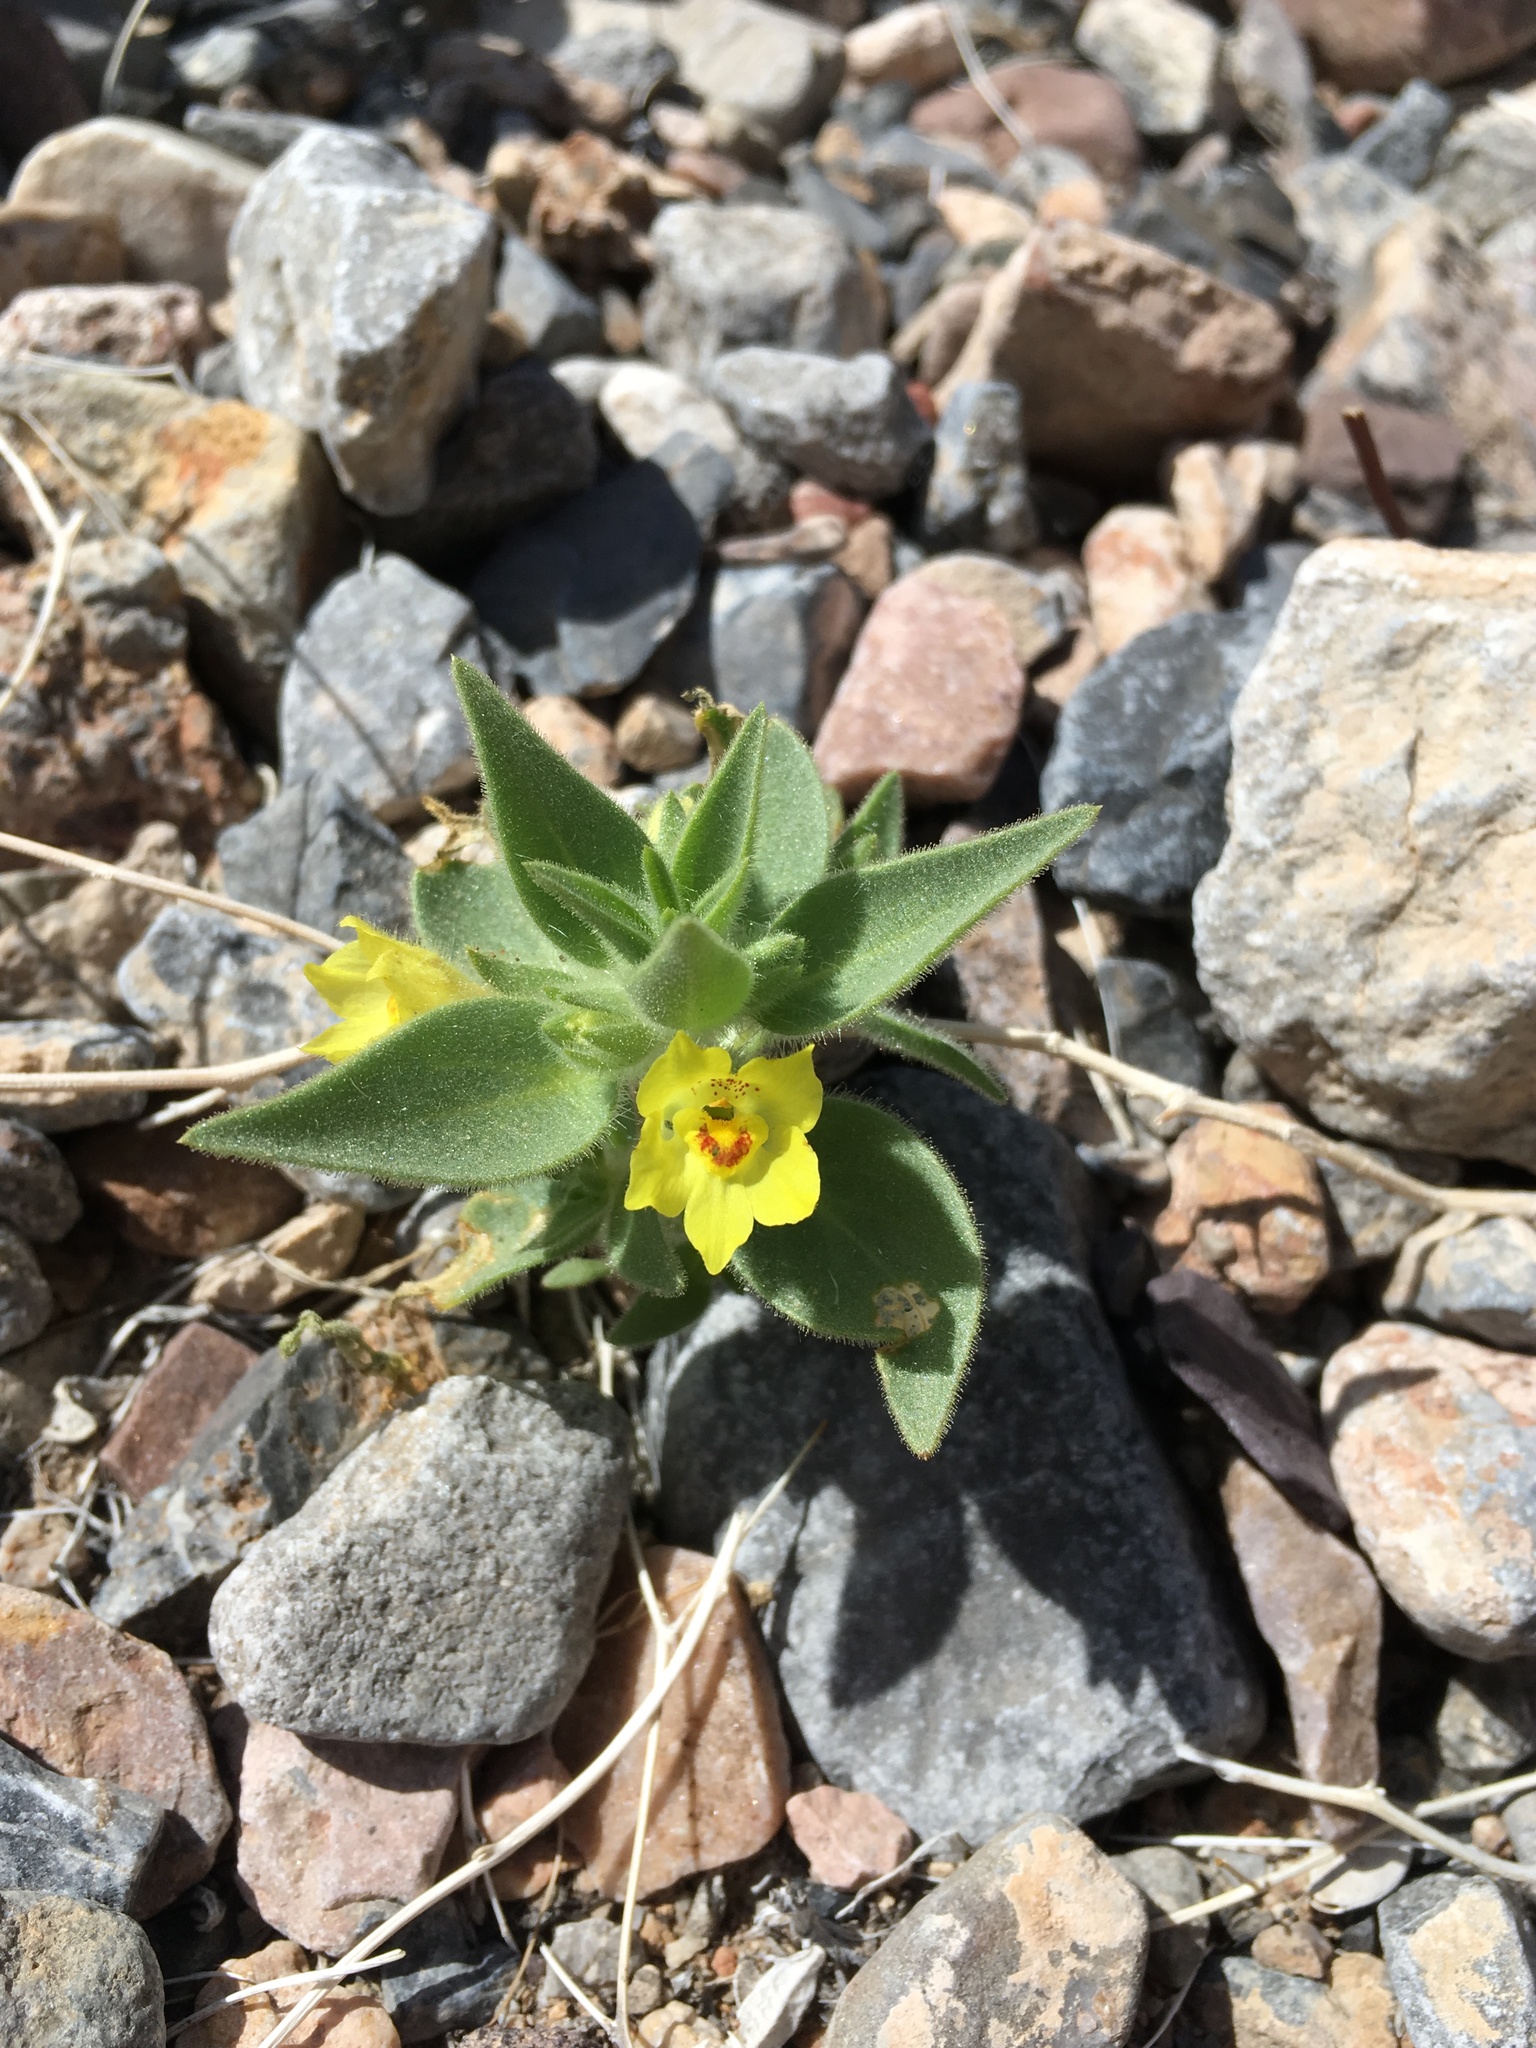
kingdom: Plantae
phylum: Tracheophyta
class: Magnoliopsida
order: Lamiales
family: Plantaginaceae
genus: Mohavea
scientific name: Mohavea breviflora
